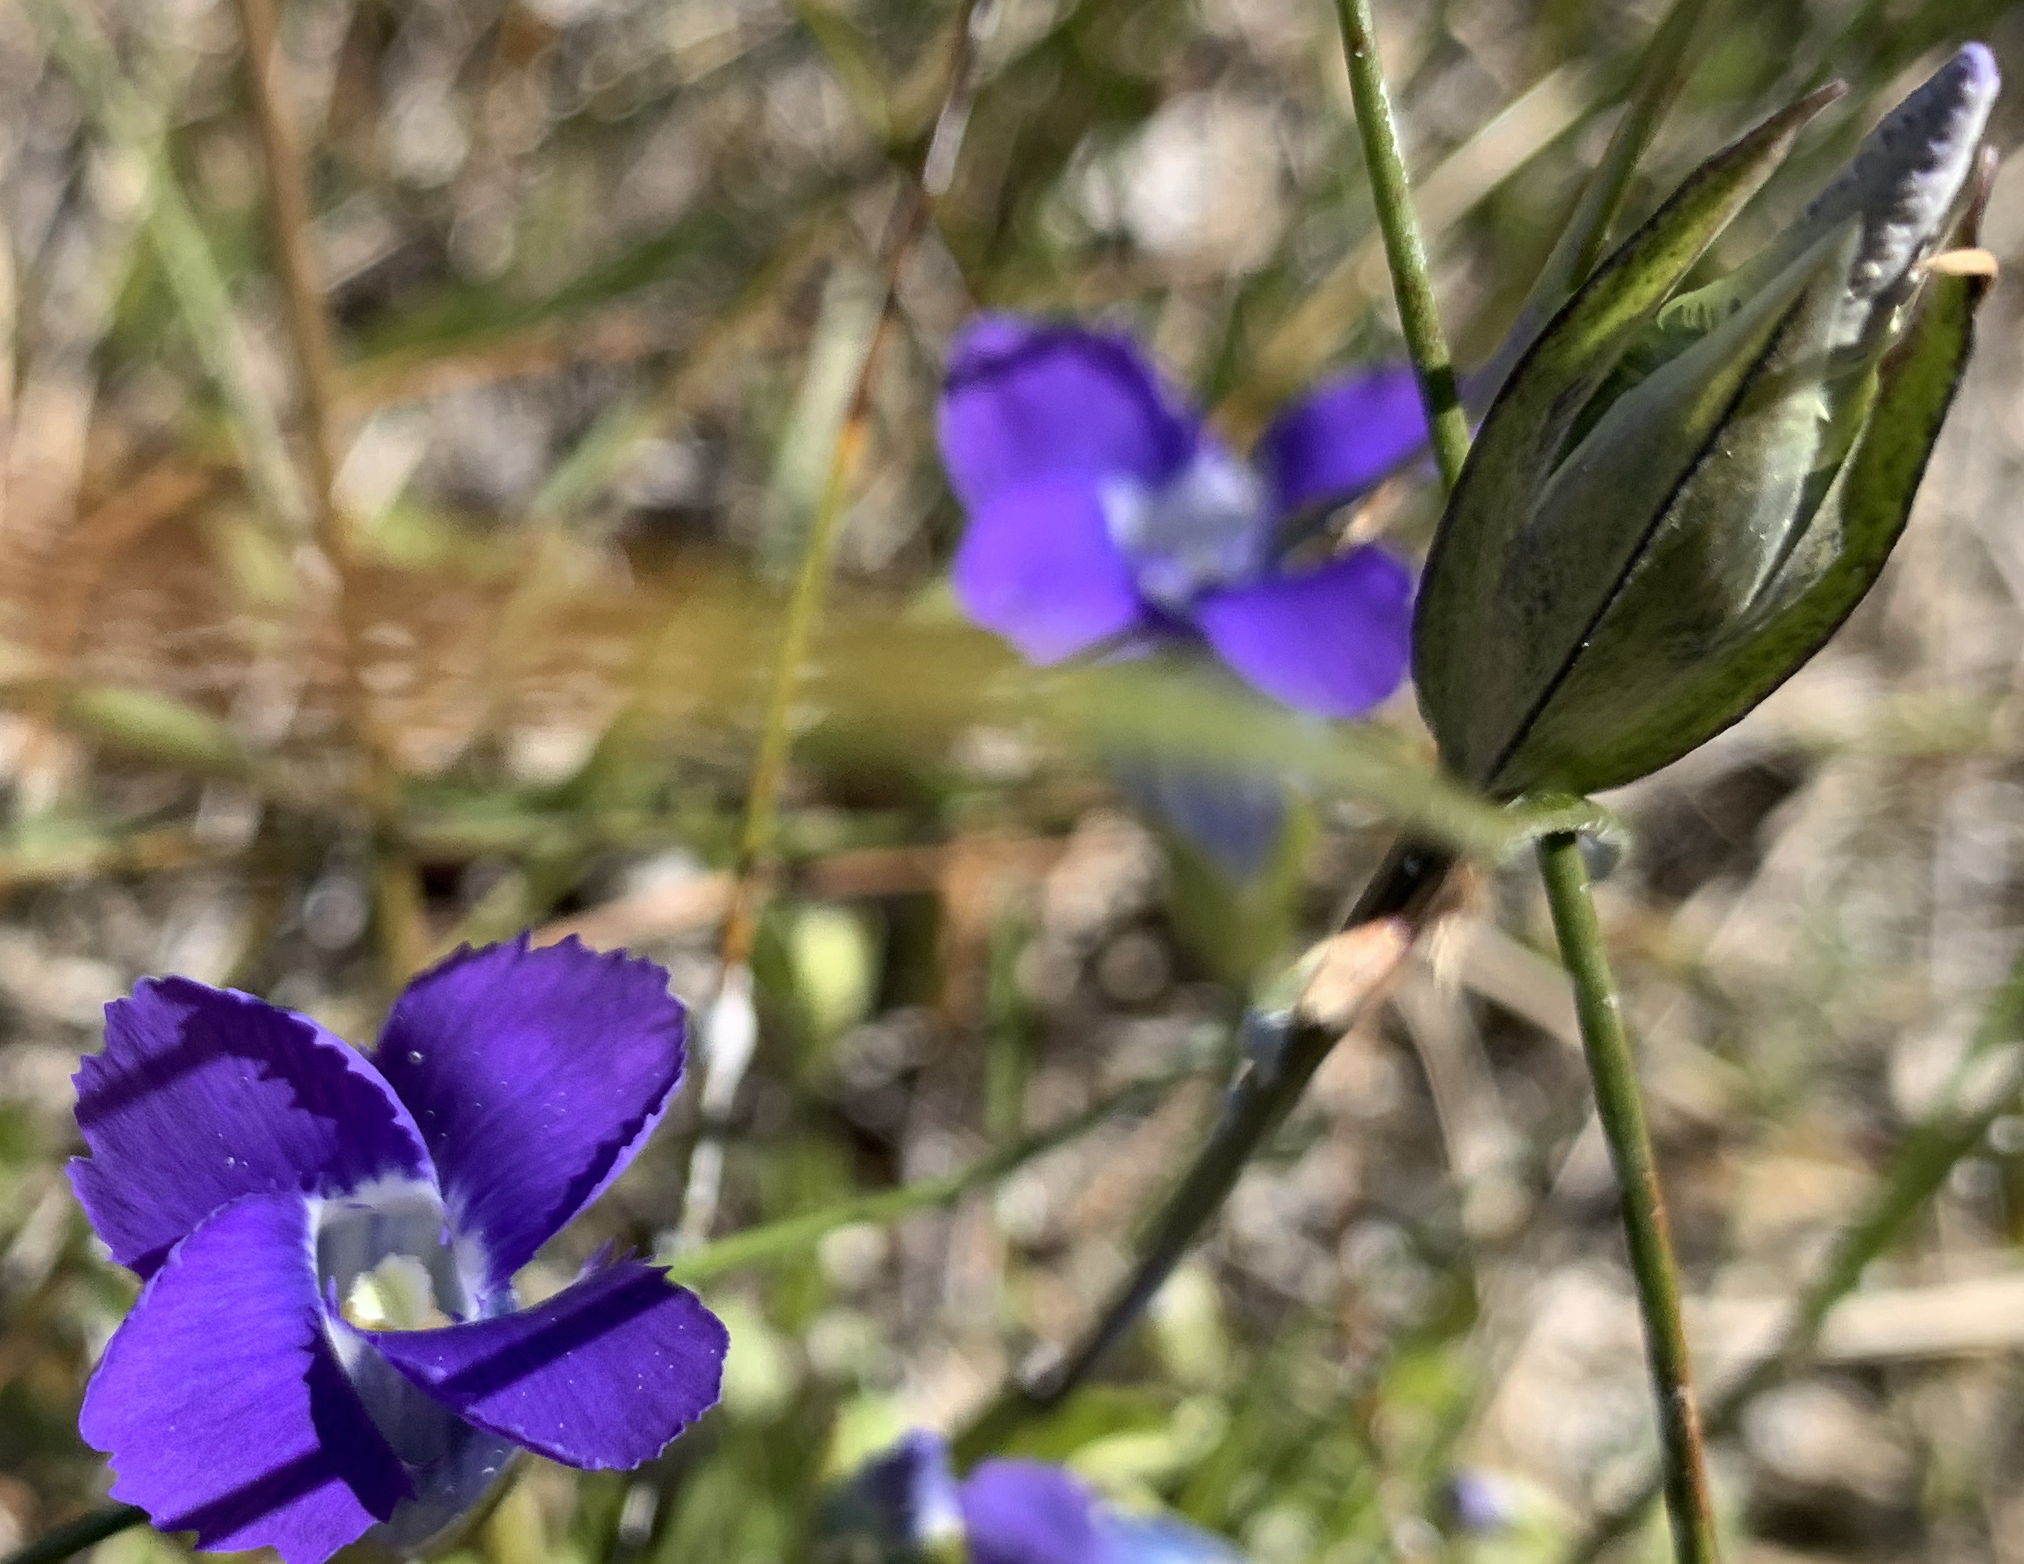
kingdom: Plantae
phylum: Tracheophyta
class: Magnoliopsida
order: Gentianales
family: Gentianaceae
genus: Gentianopsis
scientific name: Gentianopsis thermalis
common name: Rocky mountain fringed-gentian
